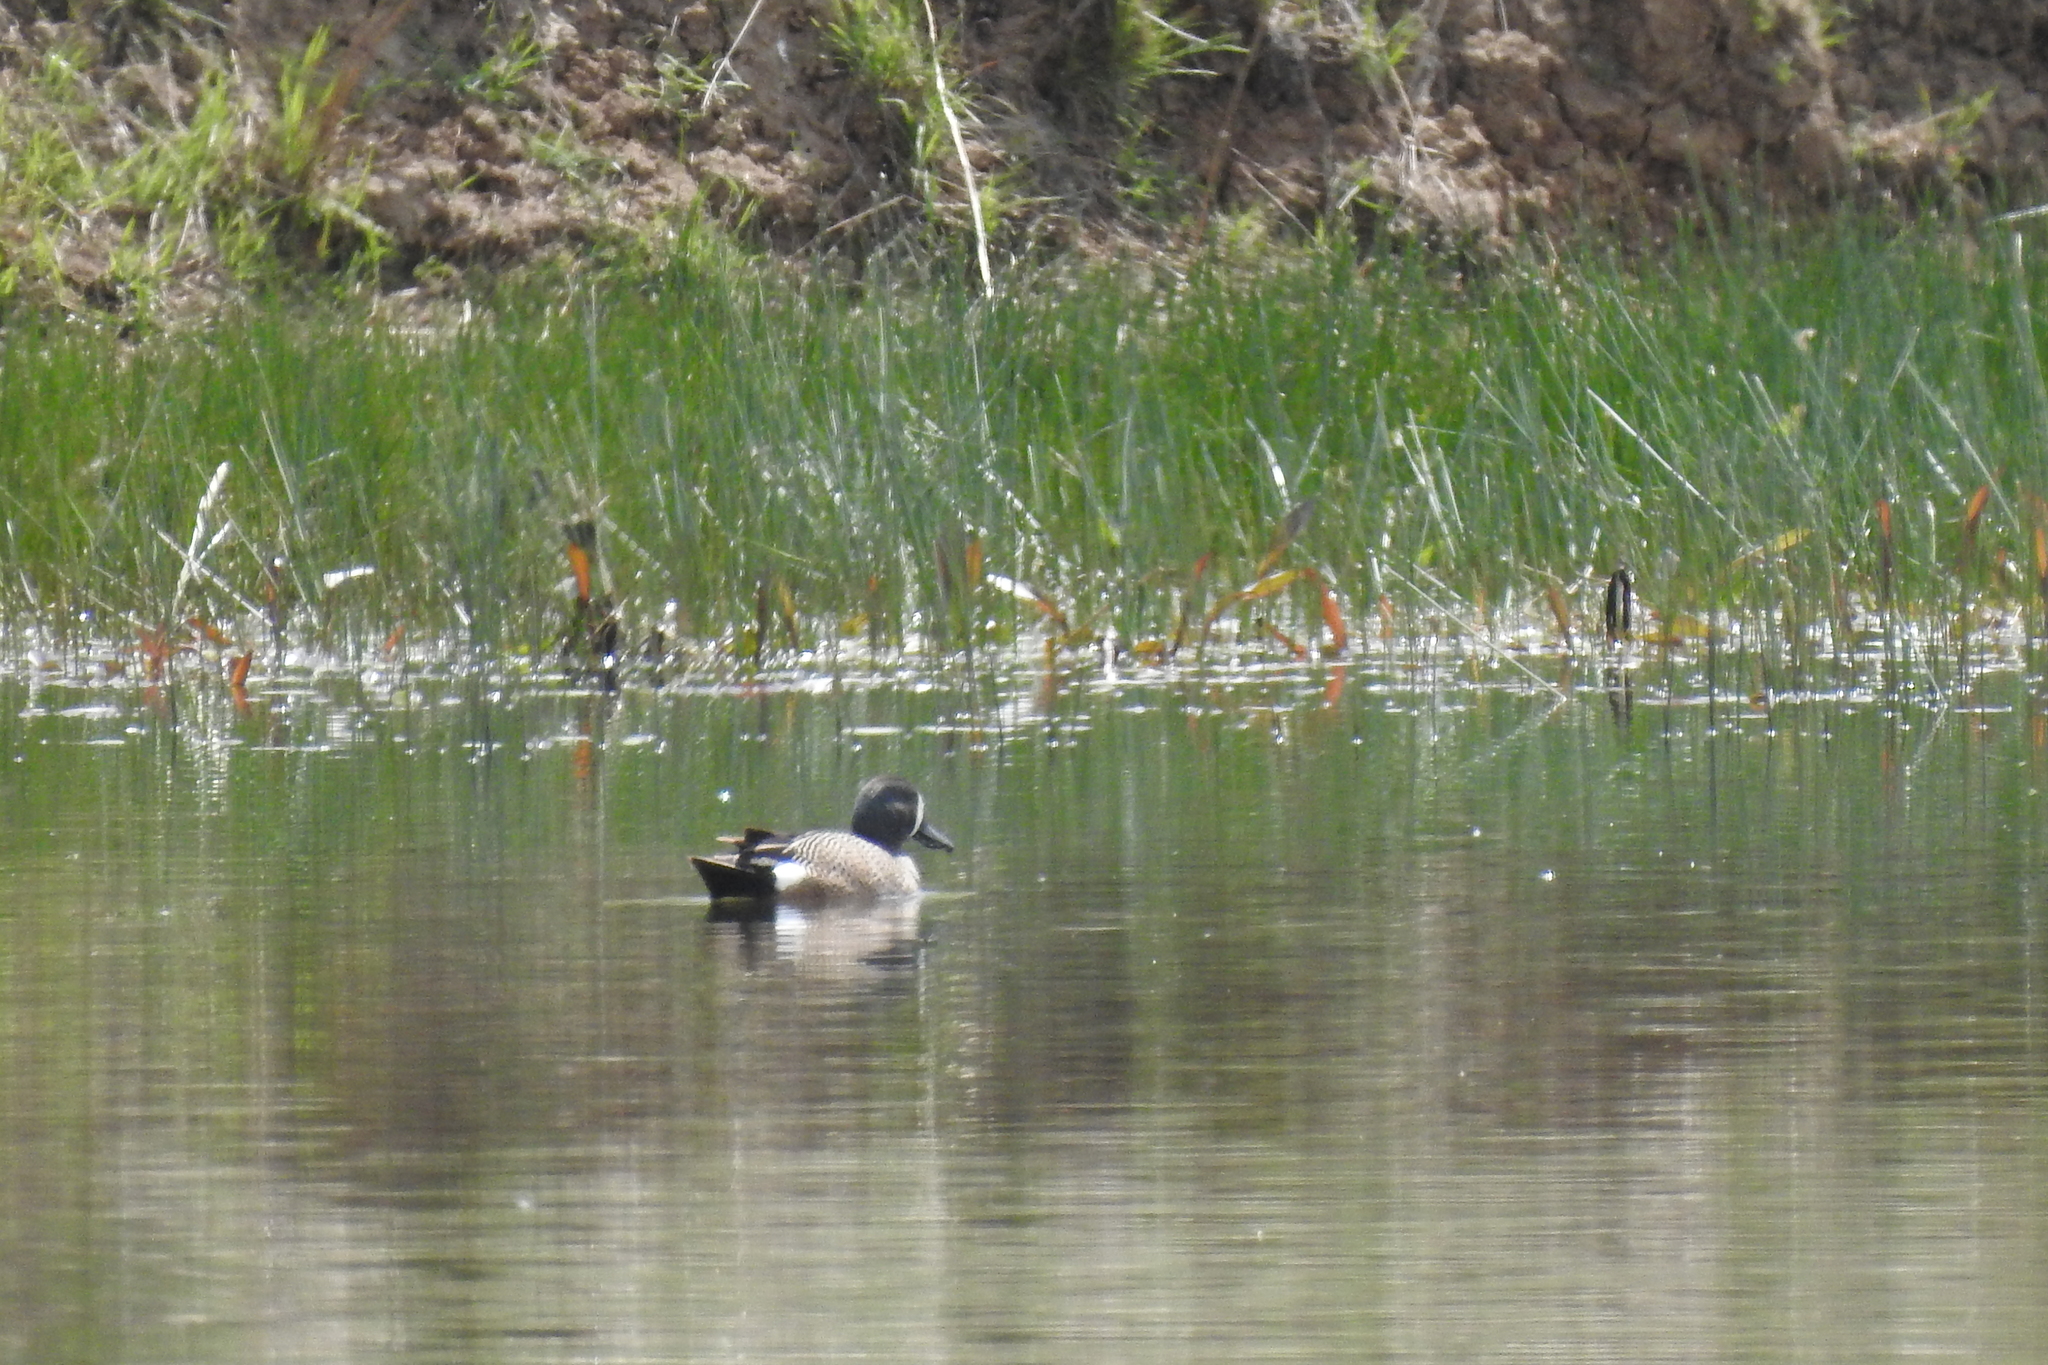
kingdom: Animalia
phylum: Chordata
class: Aves
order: Anseriformes
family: Anatidae
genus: Spatula
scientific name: Spatula discors
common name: Blue-winged teal
